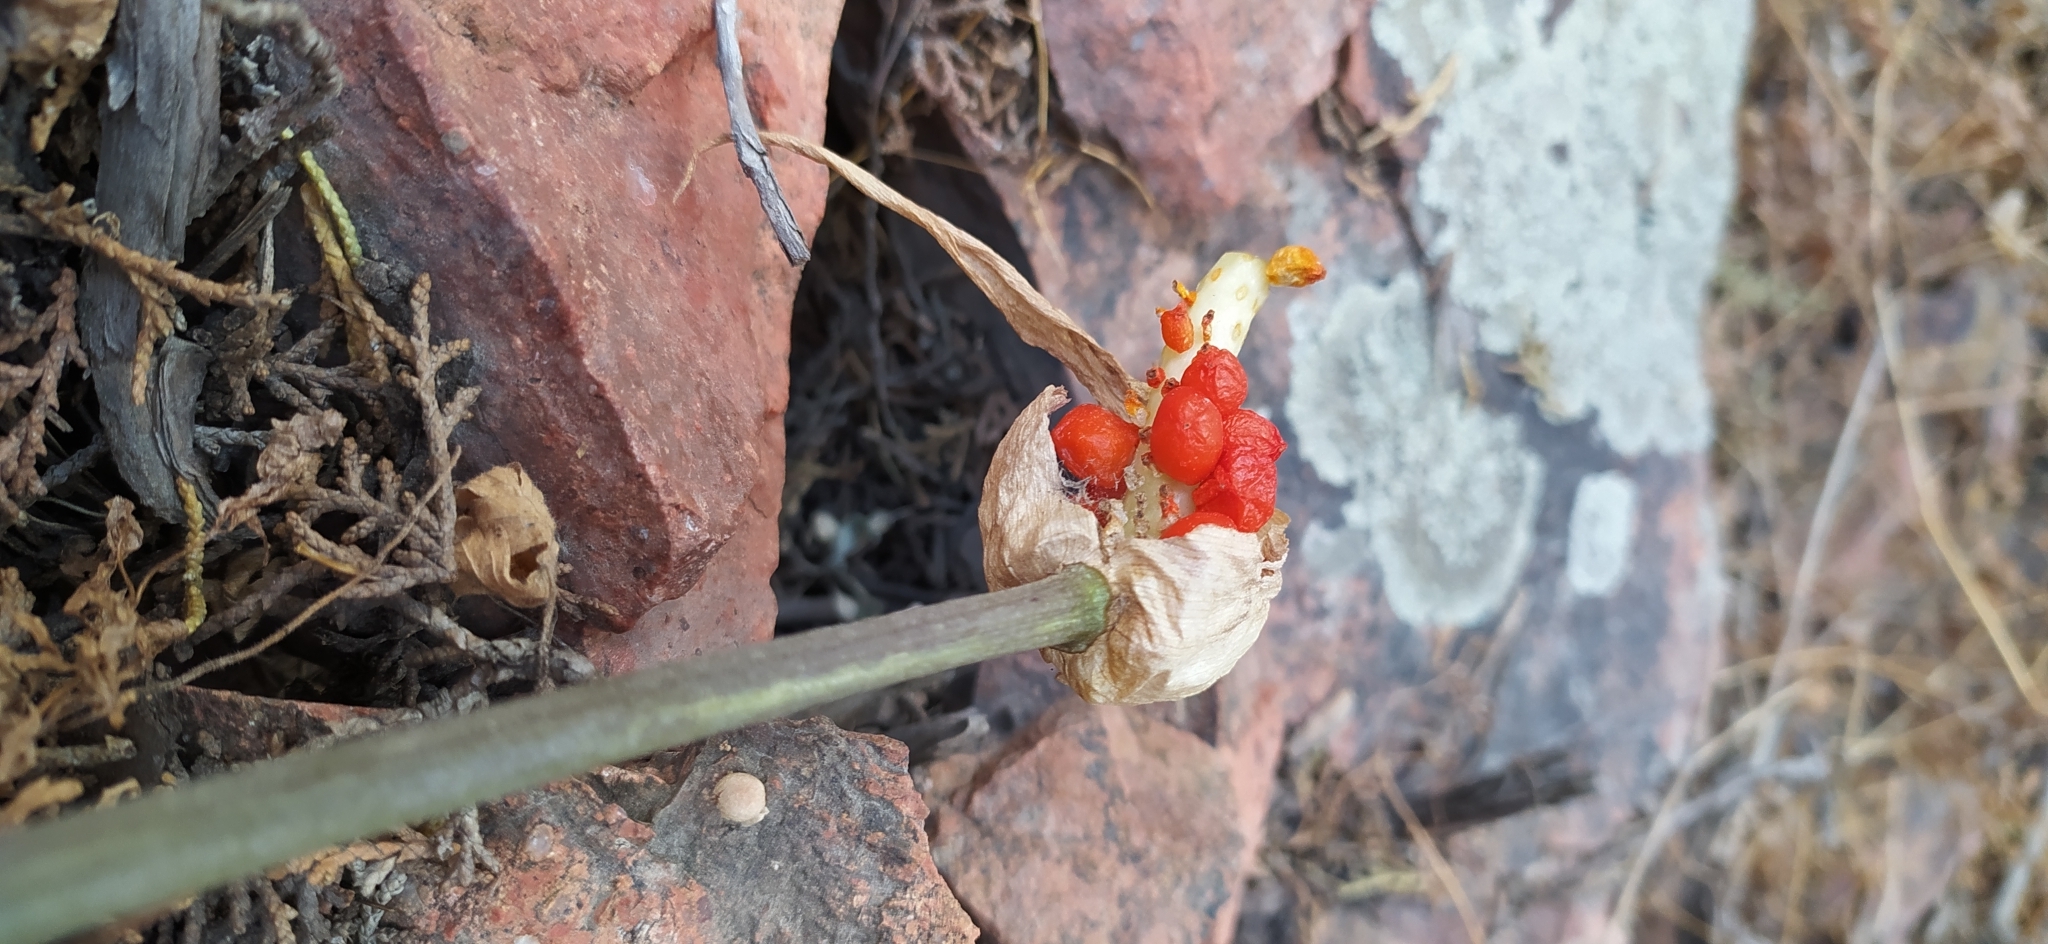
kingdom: Plantae
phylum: Tracheophyta
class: Liliopsida
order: Alismatales
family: Araceae
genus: Arum
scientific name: Arum korolkowii
